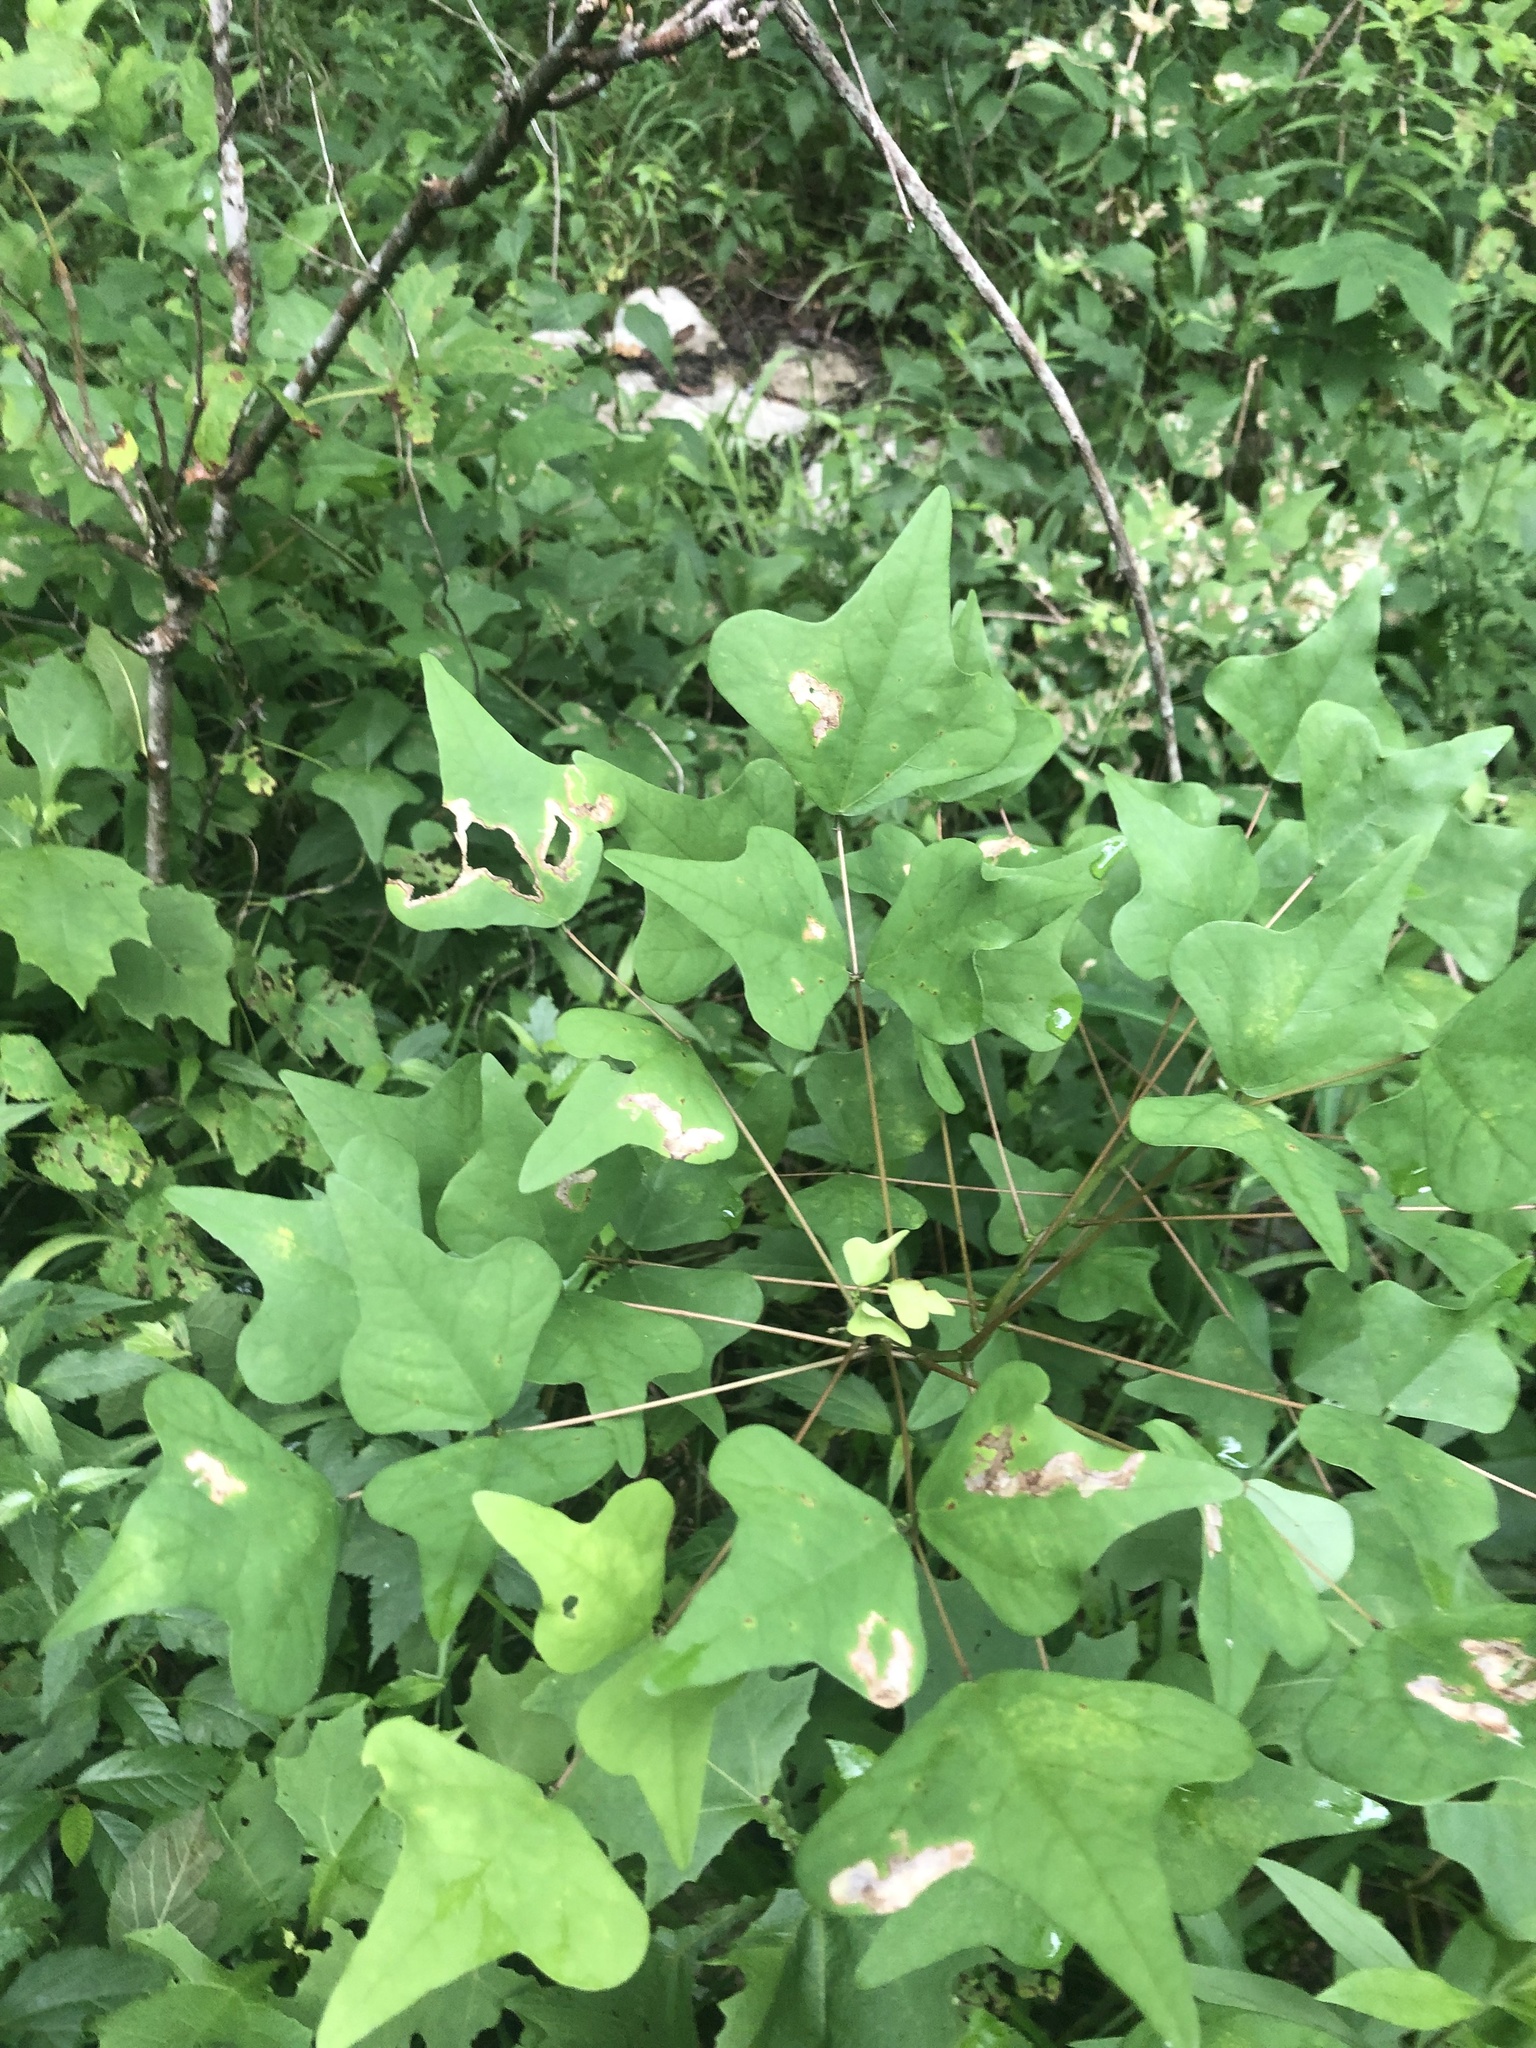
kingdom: Plantae
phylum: Tracheophyta
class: Magnoliopsida
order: Fabales
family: Fabaceae
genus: Erythrina
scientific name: Erythrina herbacea
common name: Coral-bean
